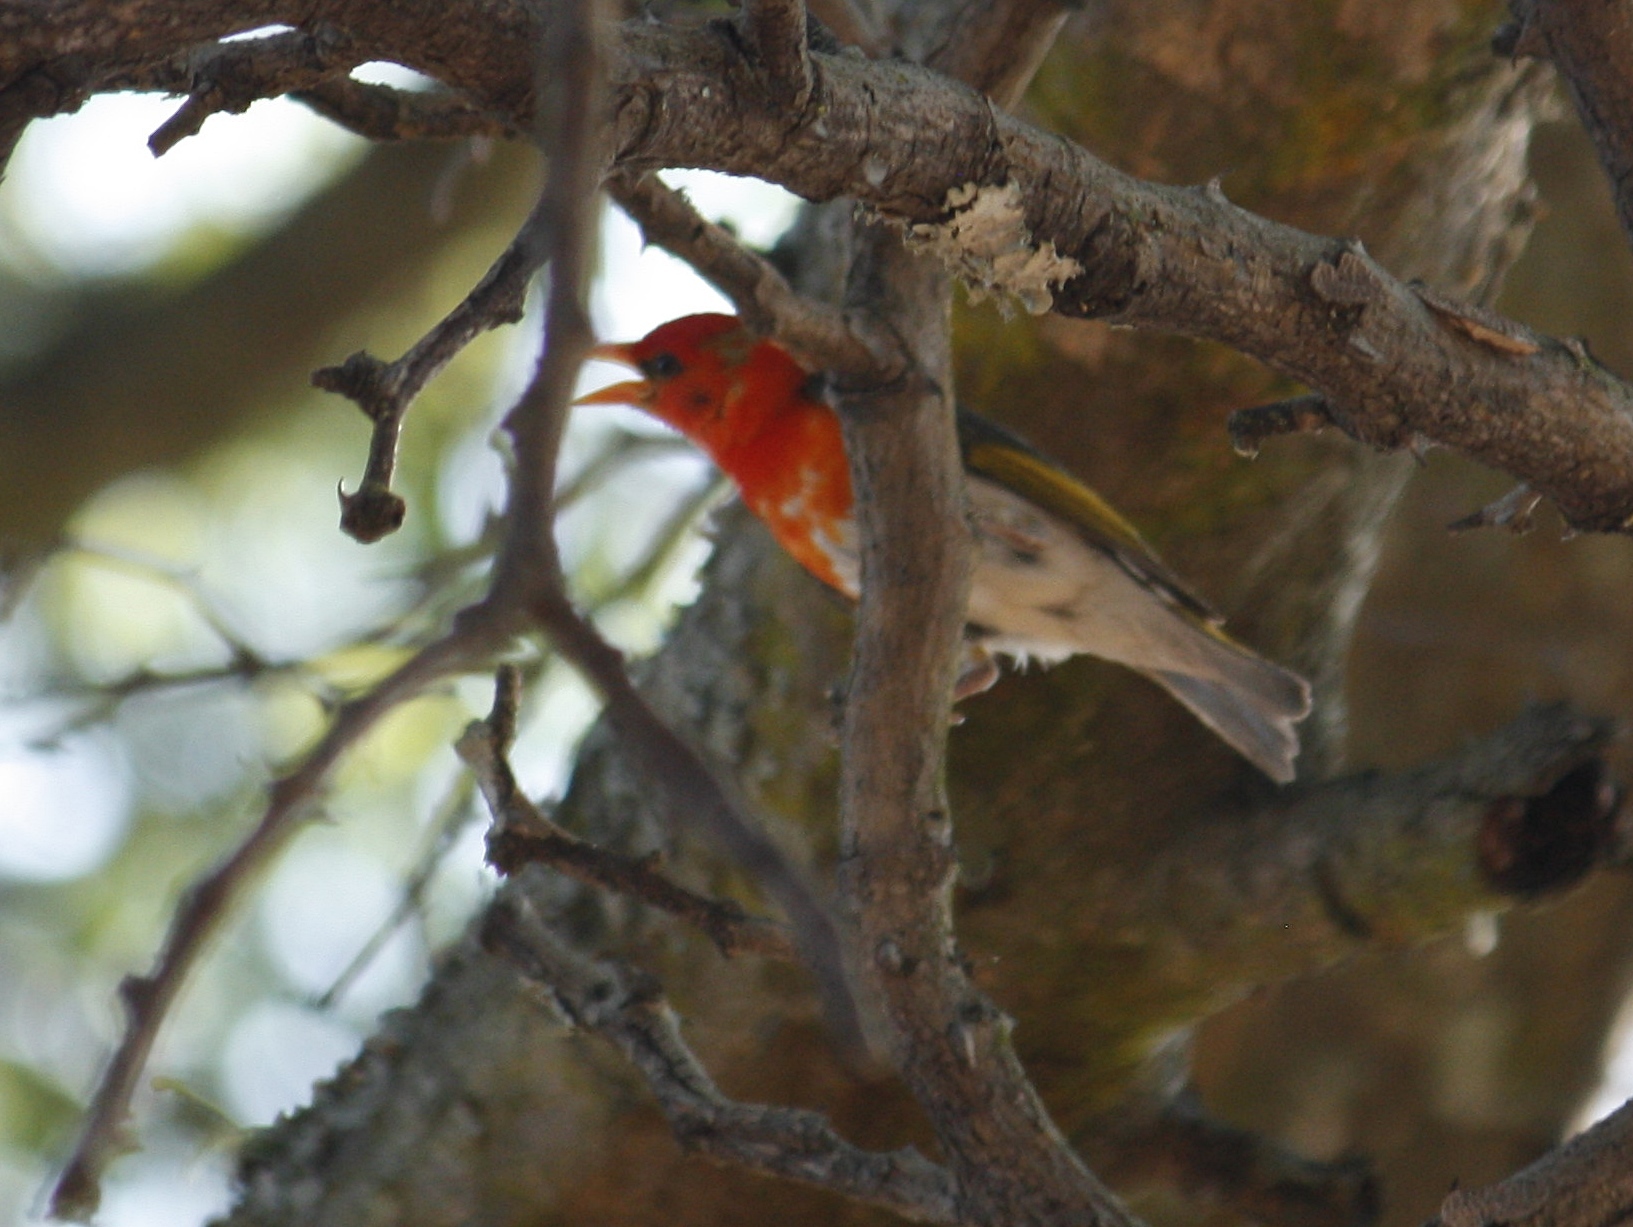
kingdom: Animalia
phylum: Chordata
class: Aves
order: Passeriformes
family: Ploceidae
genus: Anaplectes
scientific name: Anaplectes rubriceps
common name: Red-headed weaver
